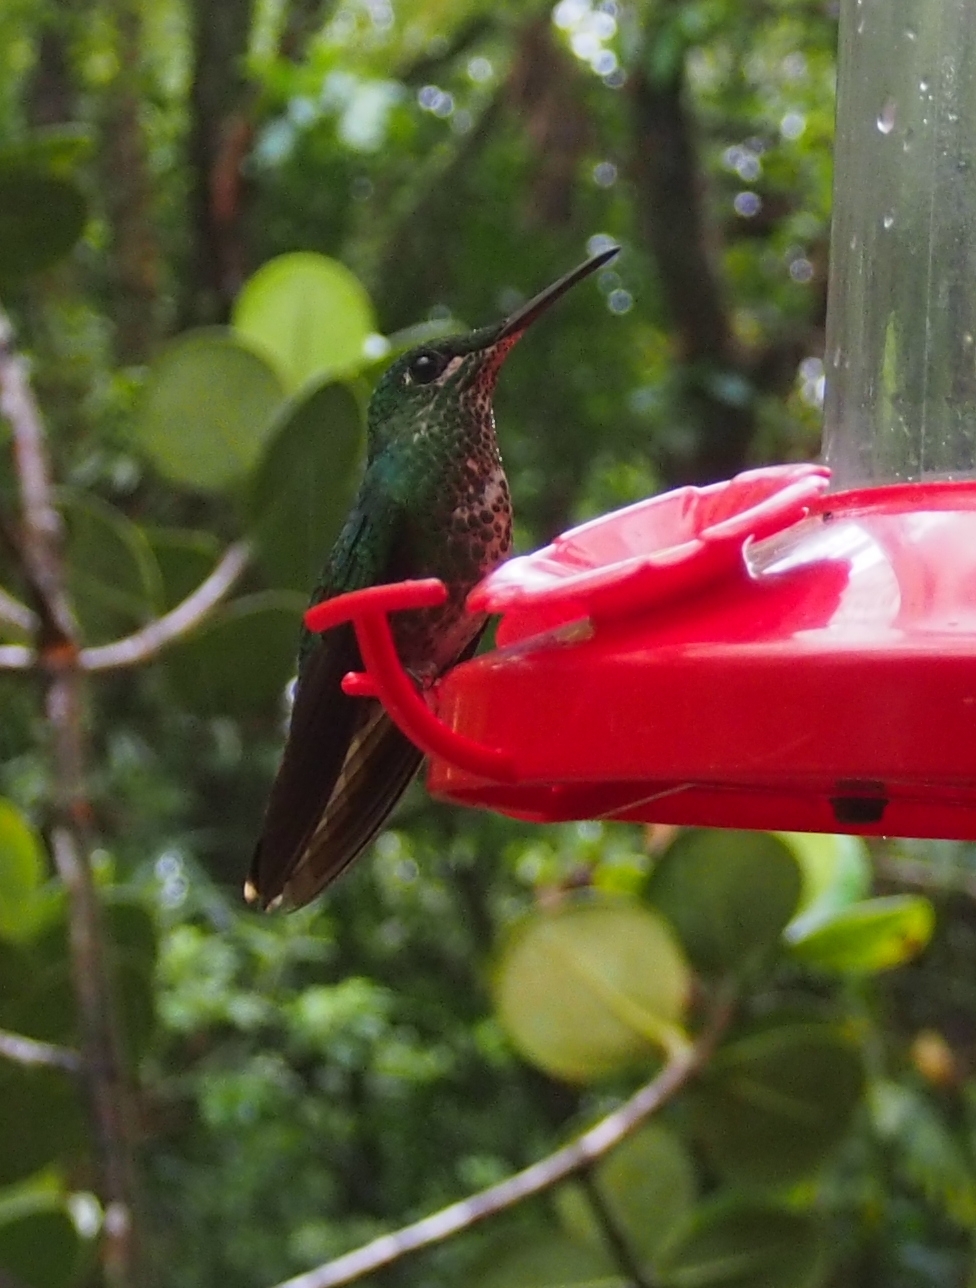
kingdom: Animalia
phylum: Chordata
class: Aves
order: Apodiformes
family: Trochilidae
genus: Heliodoxa
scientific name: Heliodoxa jacula
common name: Green-crowned brilliant
